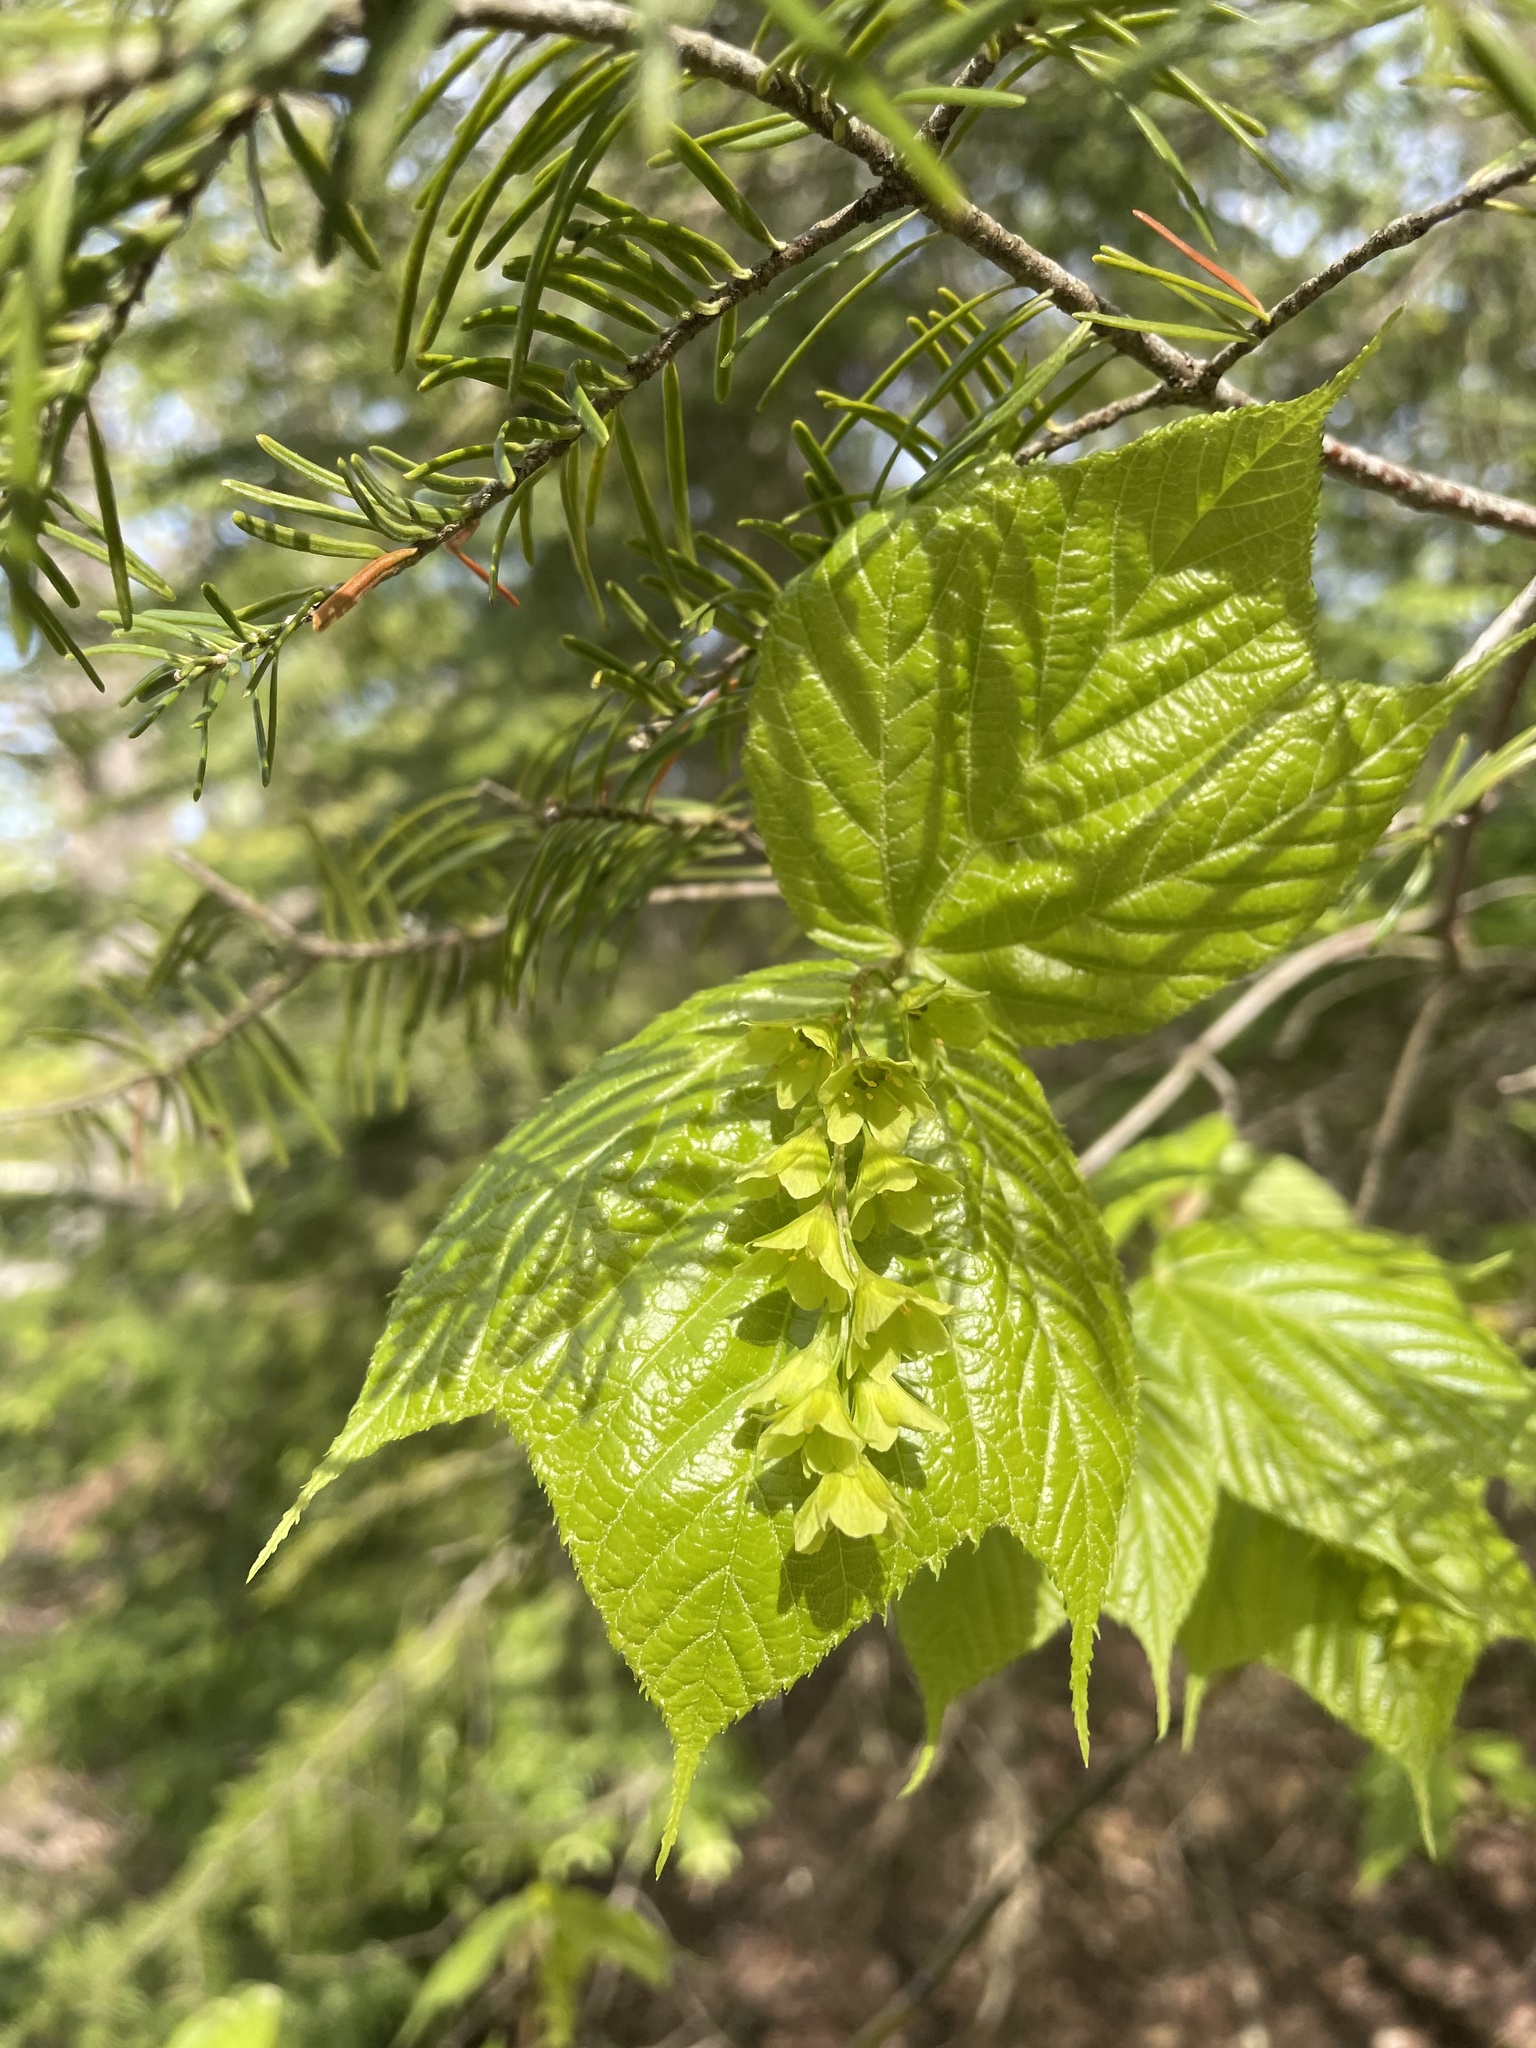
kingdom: Plantae
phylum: Tracheophyta
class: Magnoliopsida
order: Sapindales
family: Sapindaceae
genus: Acer
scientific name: Acer pensylvanicum
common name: Moosewood
